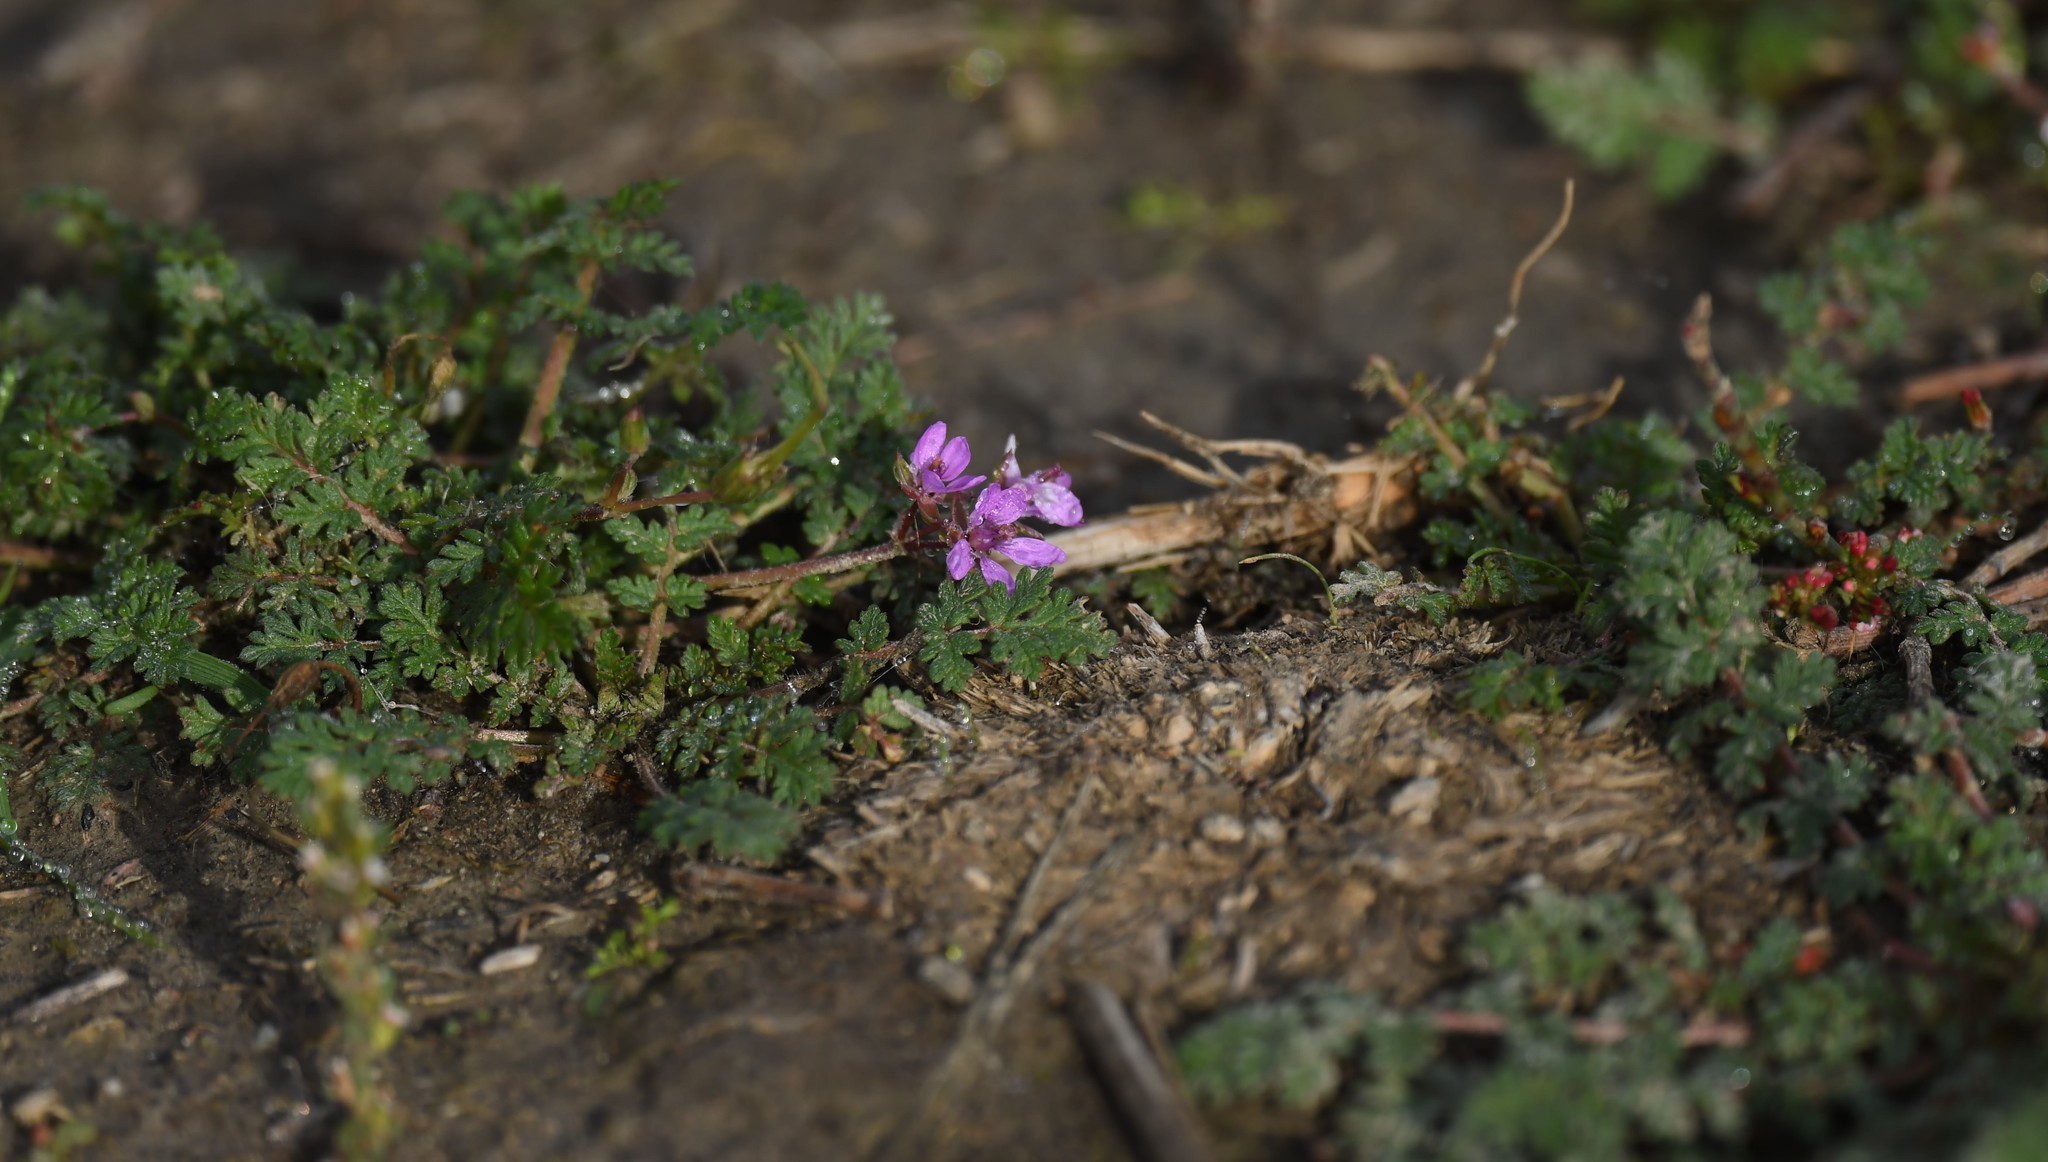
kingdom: Plantae
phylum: Tracheophyta
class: Magnoliopsida
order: Geraniales
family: Geraniaceae
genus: Erodium
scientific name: Erodium cicutarium
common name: Common stork's-bill
